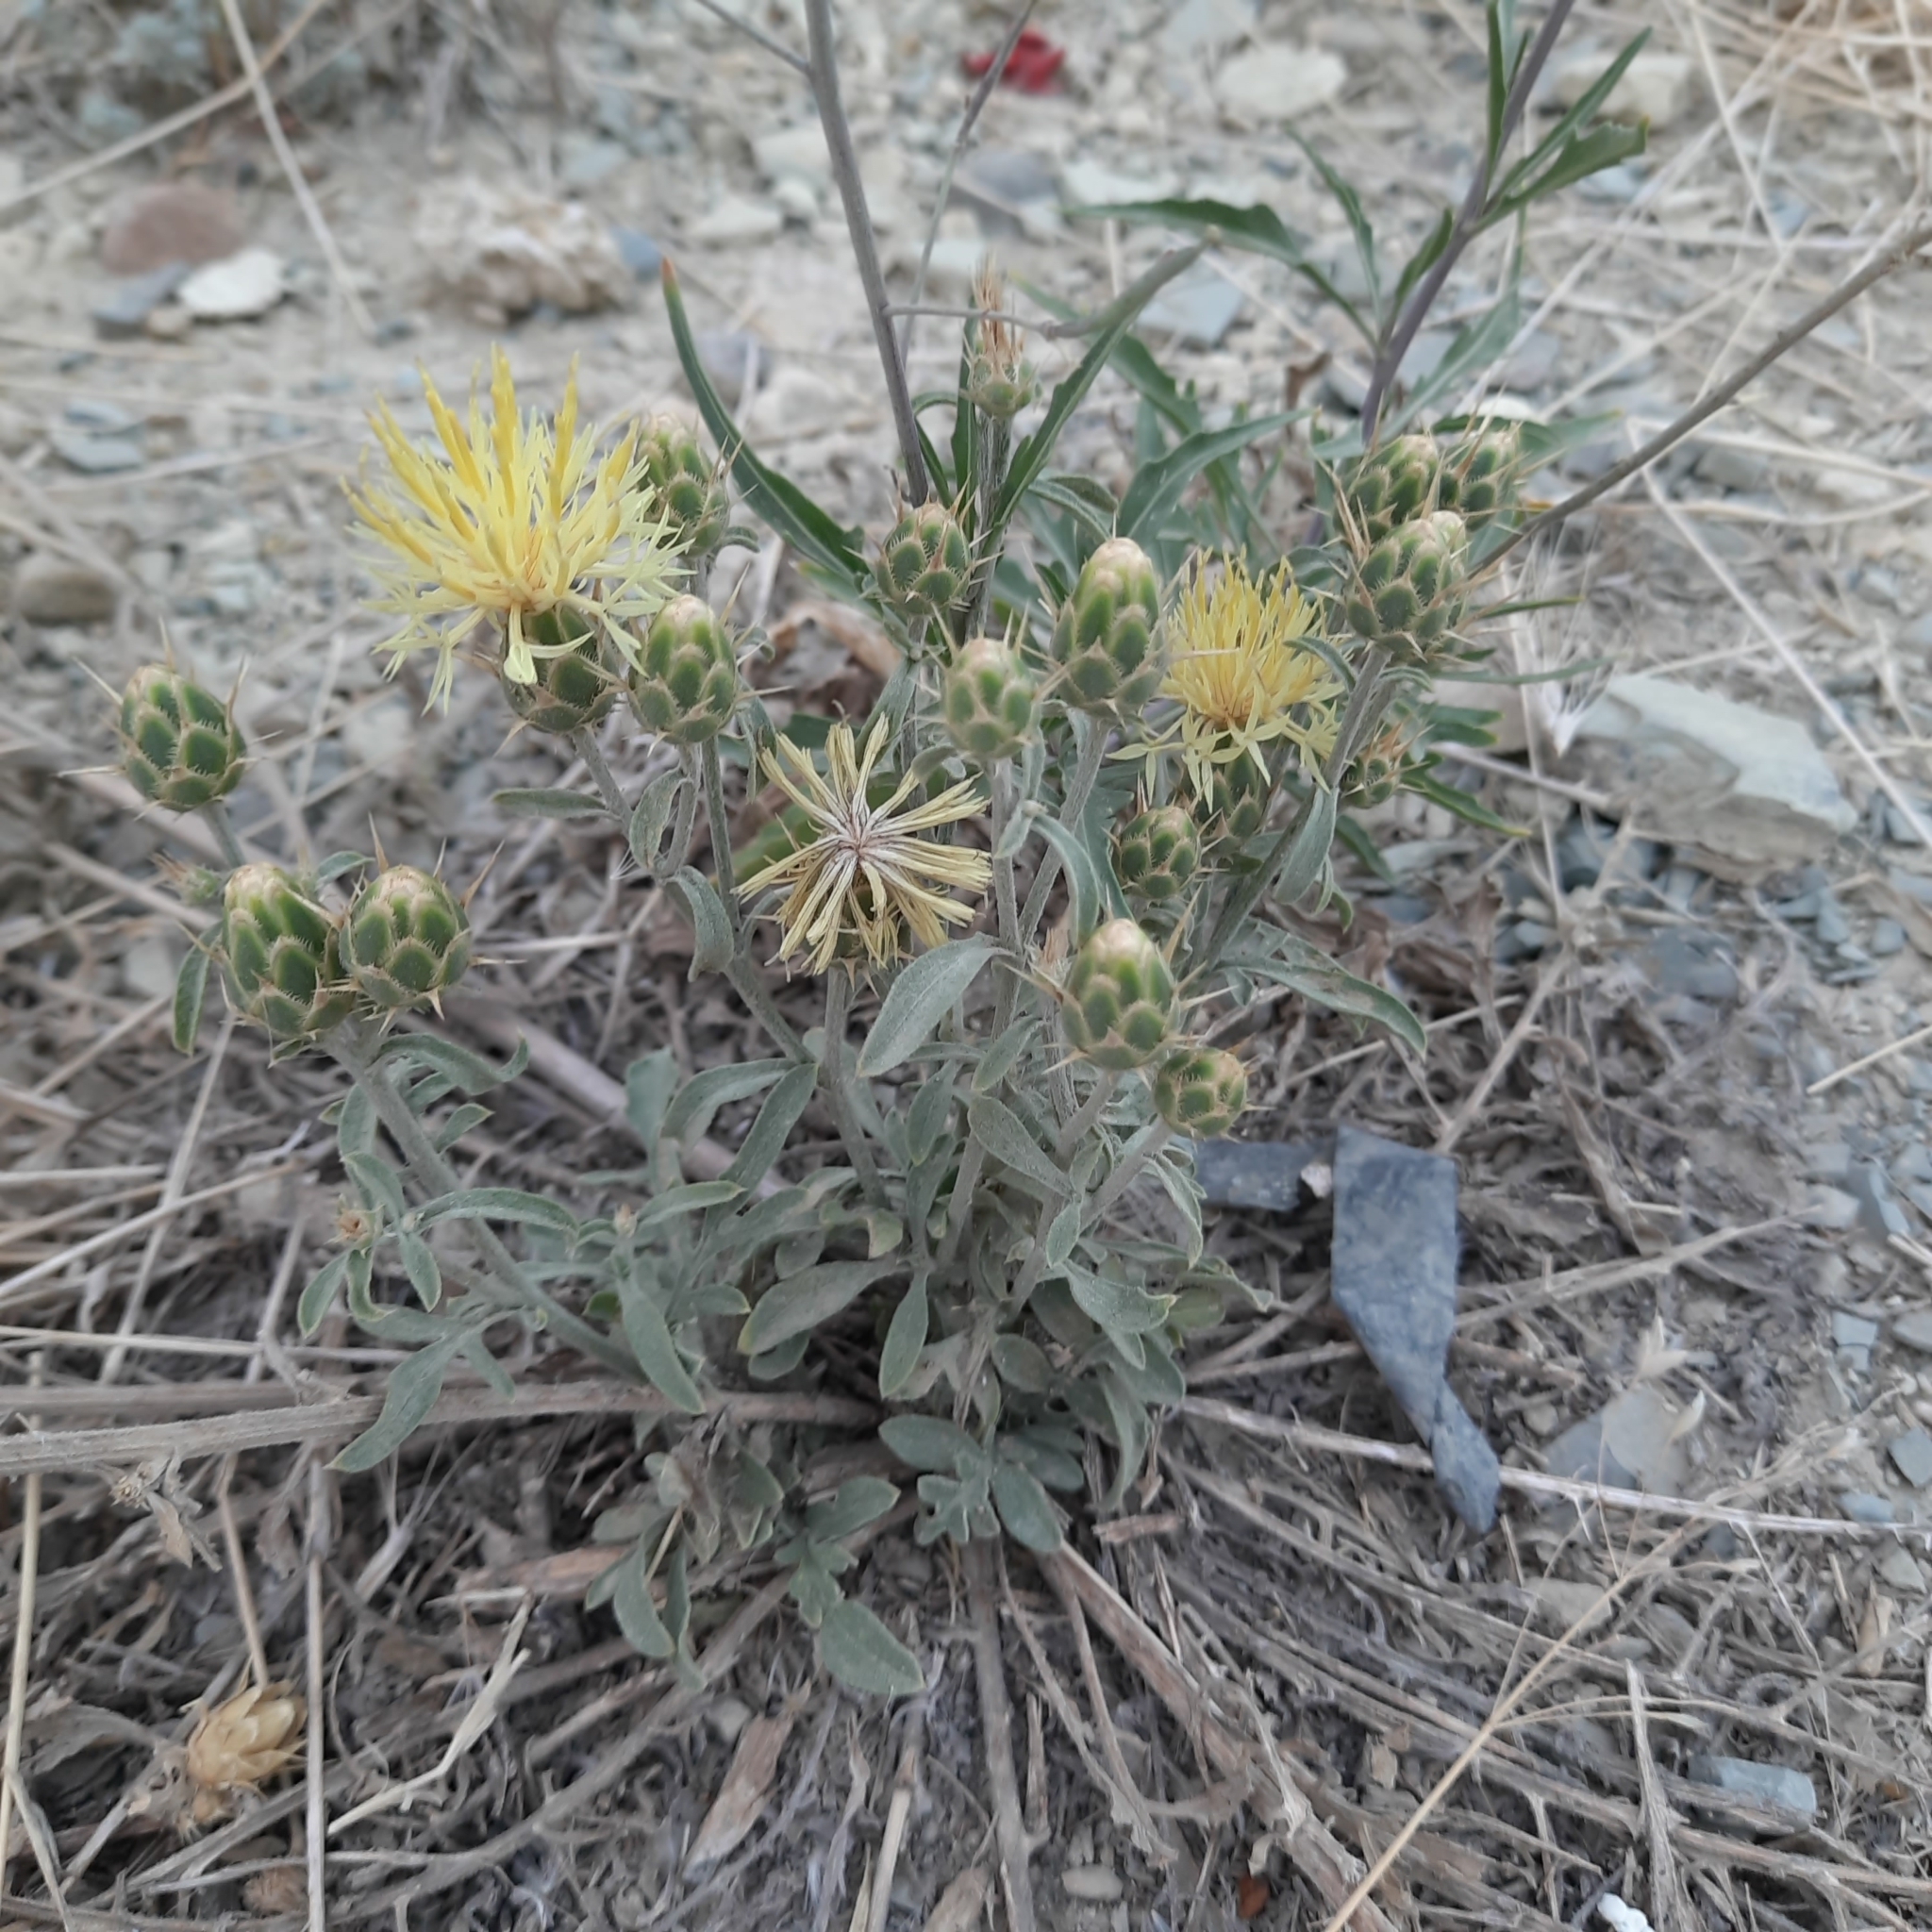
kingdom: Plantae
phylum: Tracheophyta
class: Magnoliopsida
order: Asterales
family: Asteraceae
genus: Centaurea
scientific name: Centaurea salonitana
